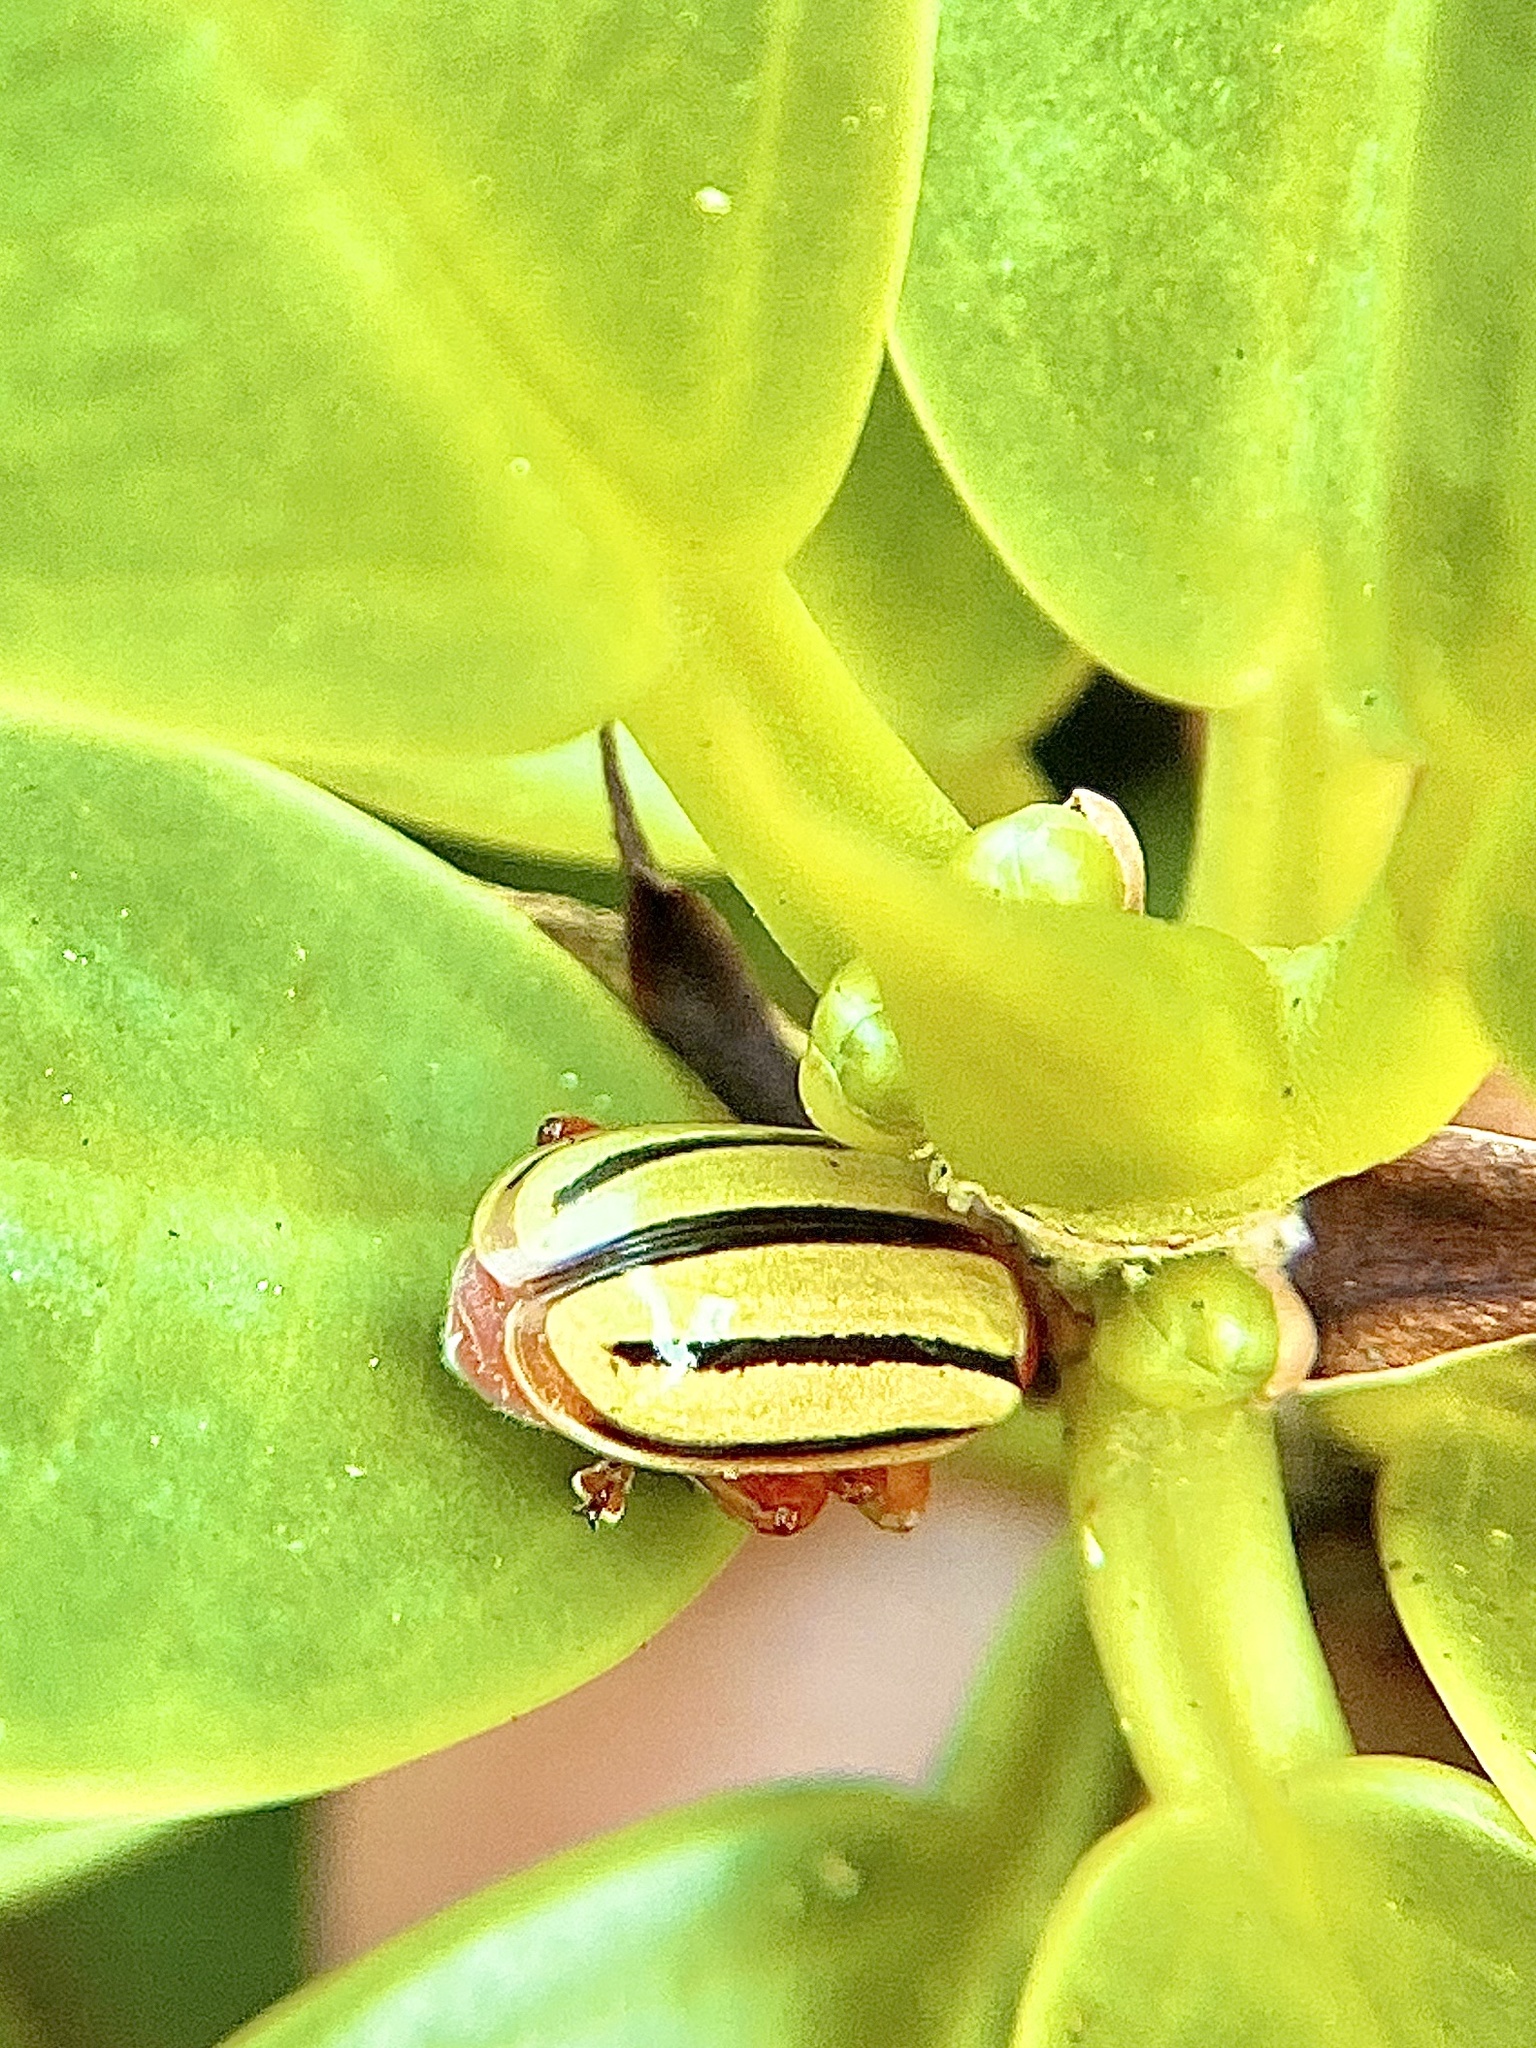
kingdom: Animalia
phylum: Arthropoda
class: Insecta
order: Coleoptera
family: Chrysomelidae
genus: Disonycha
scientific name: Disonycha
